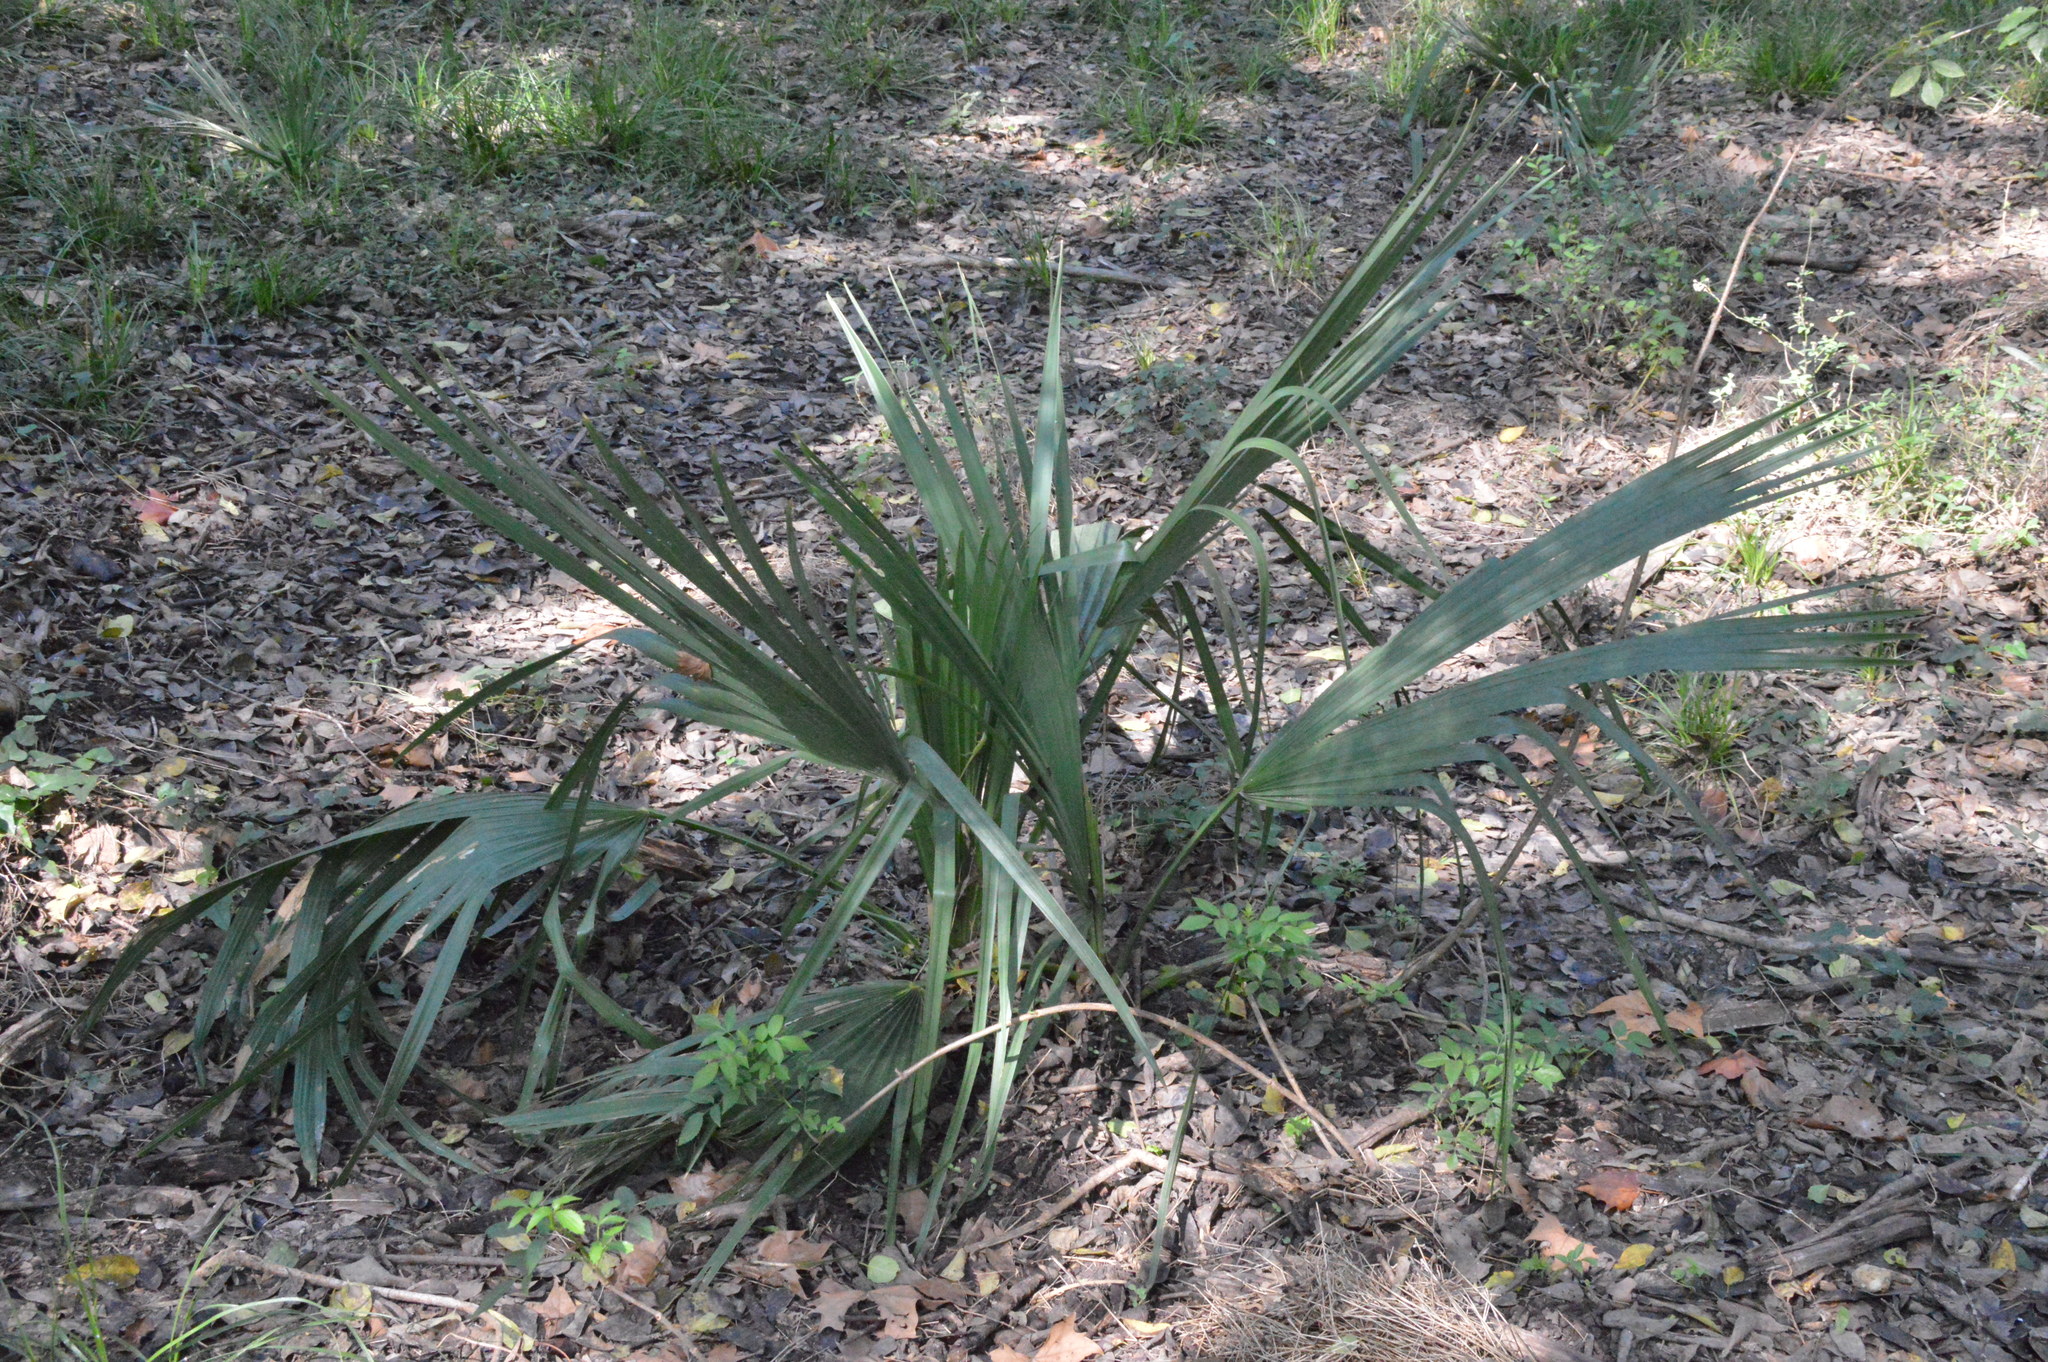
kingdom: Plantae
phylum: Tracheophyta
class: Liliopsida
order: Arecales
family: Arecaceae
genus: Sabal
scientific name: Sabal minor
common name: Dwarf palmetto
